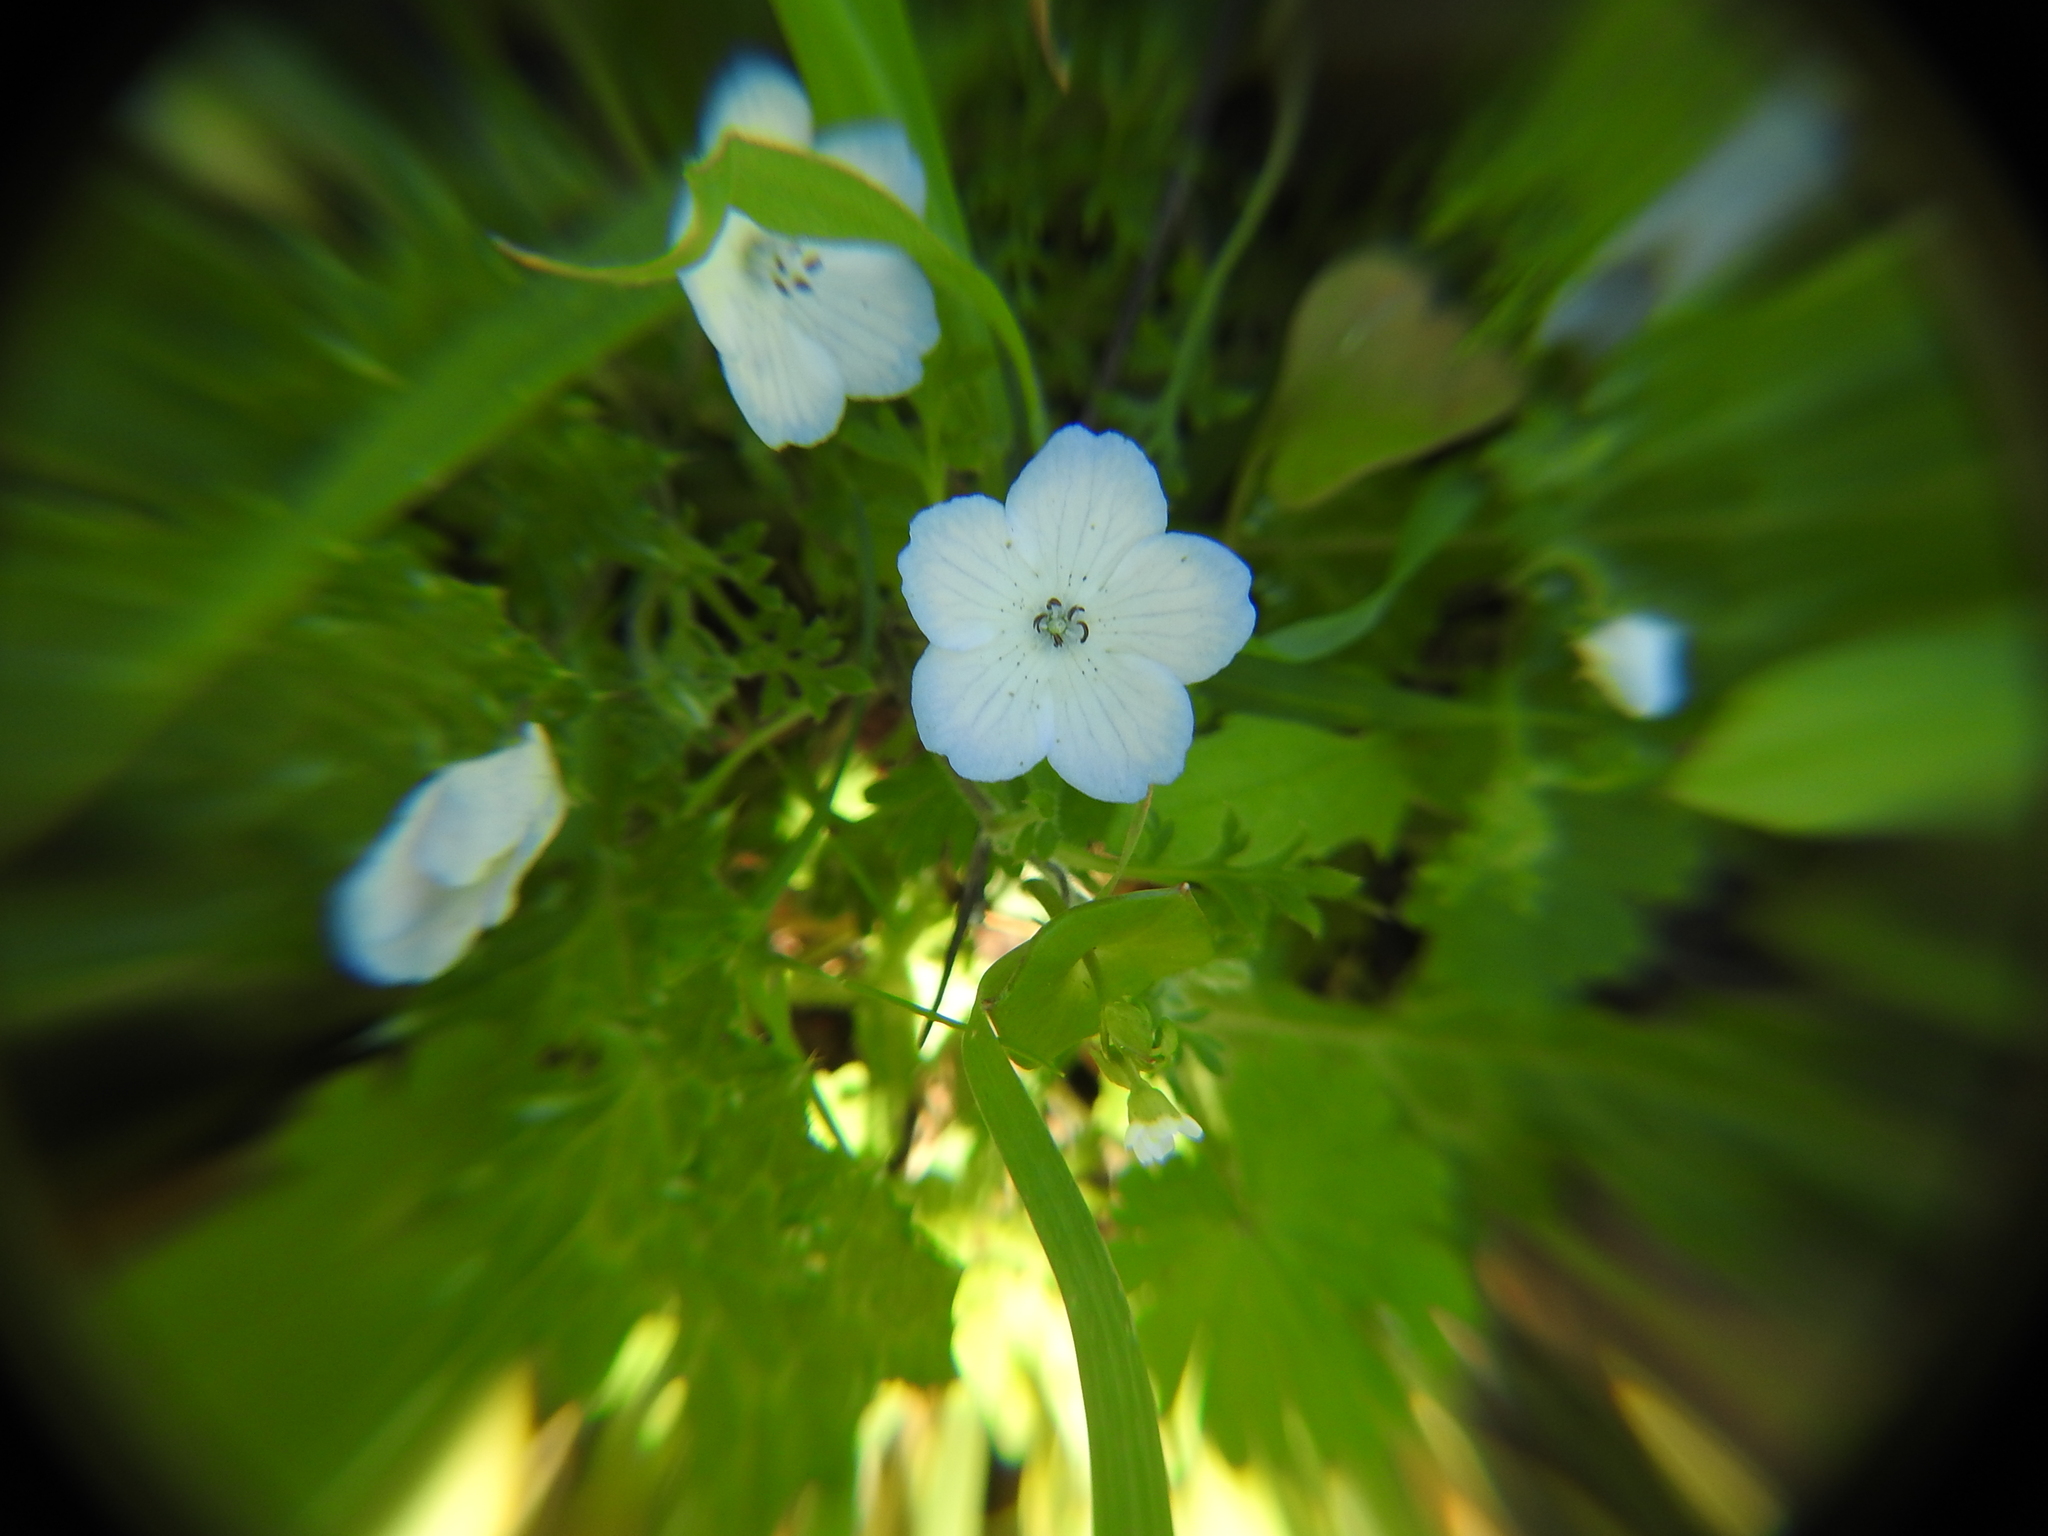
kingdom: Plantae
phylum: Tracheophyta
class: Magnoliopsida
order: Boraginales
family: Hydrophyllaceae
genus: Nemophila
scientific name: Nemophila menziesii
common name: Baby's-blue-eyes
